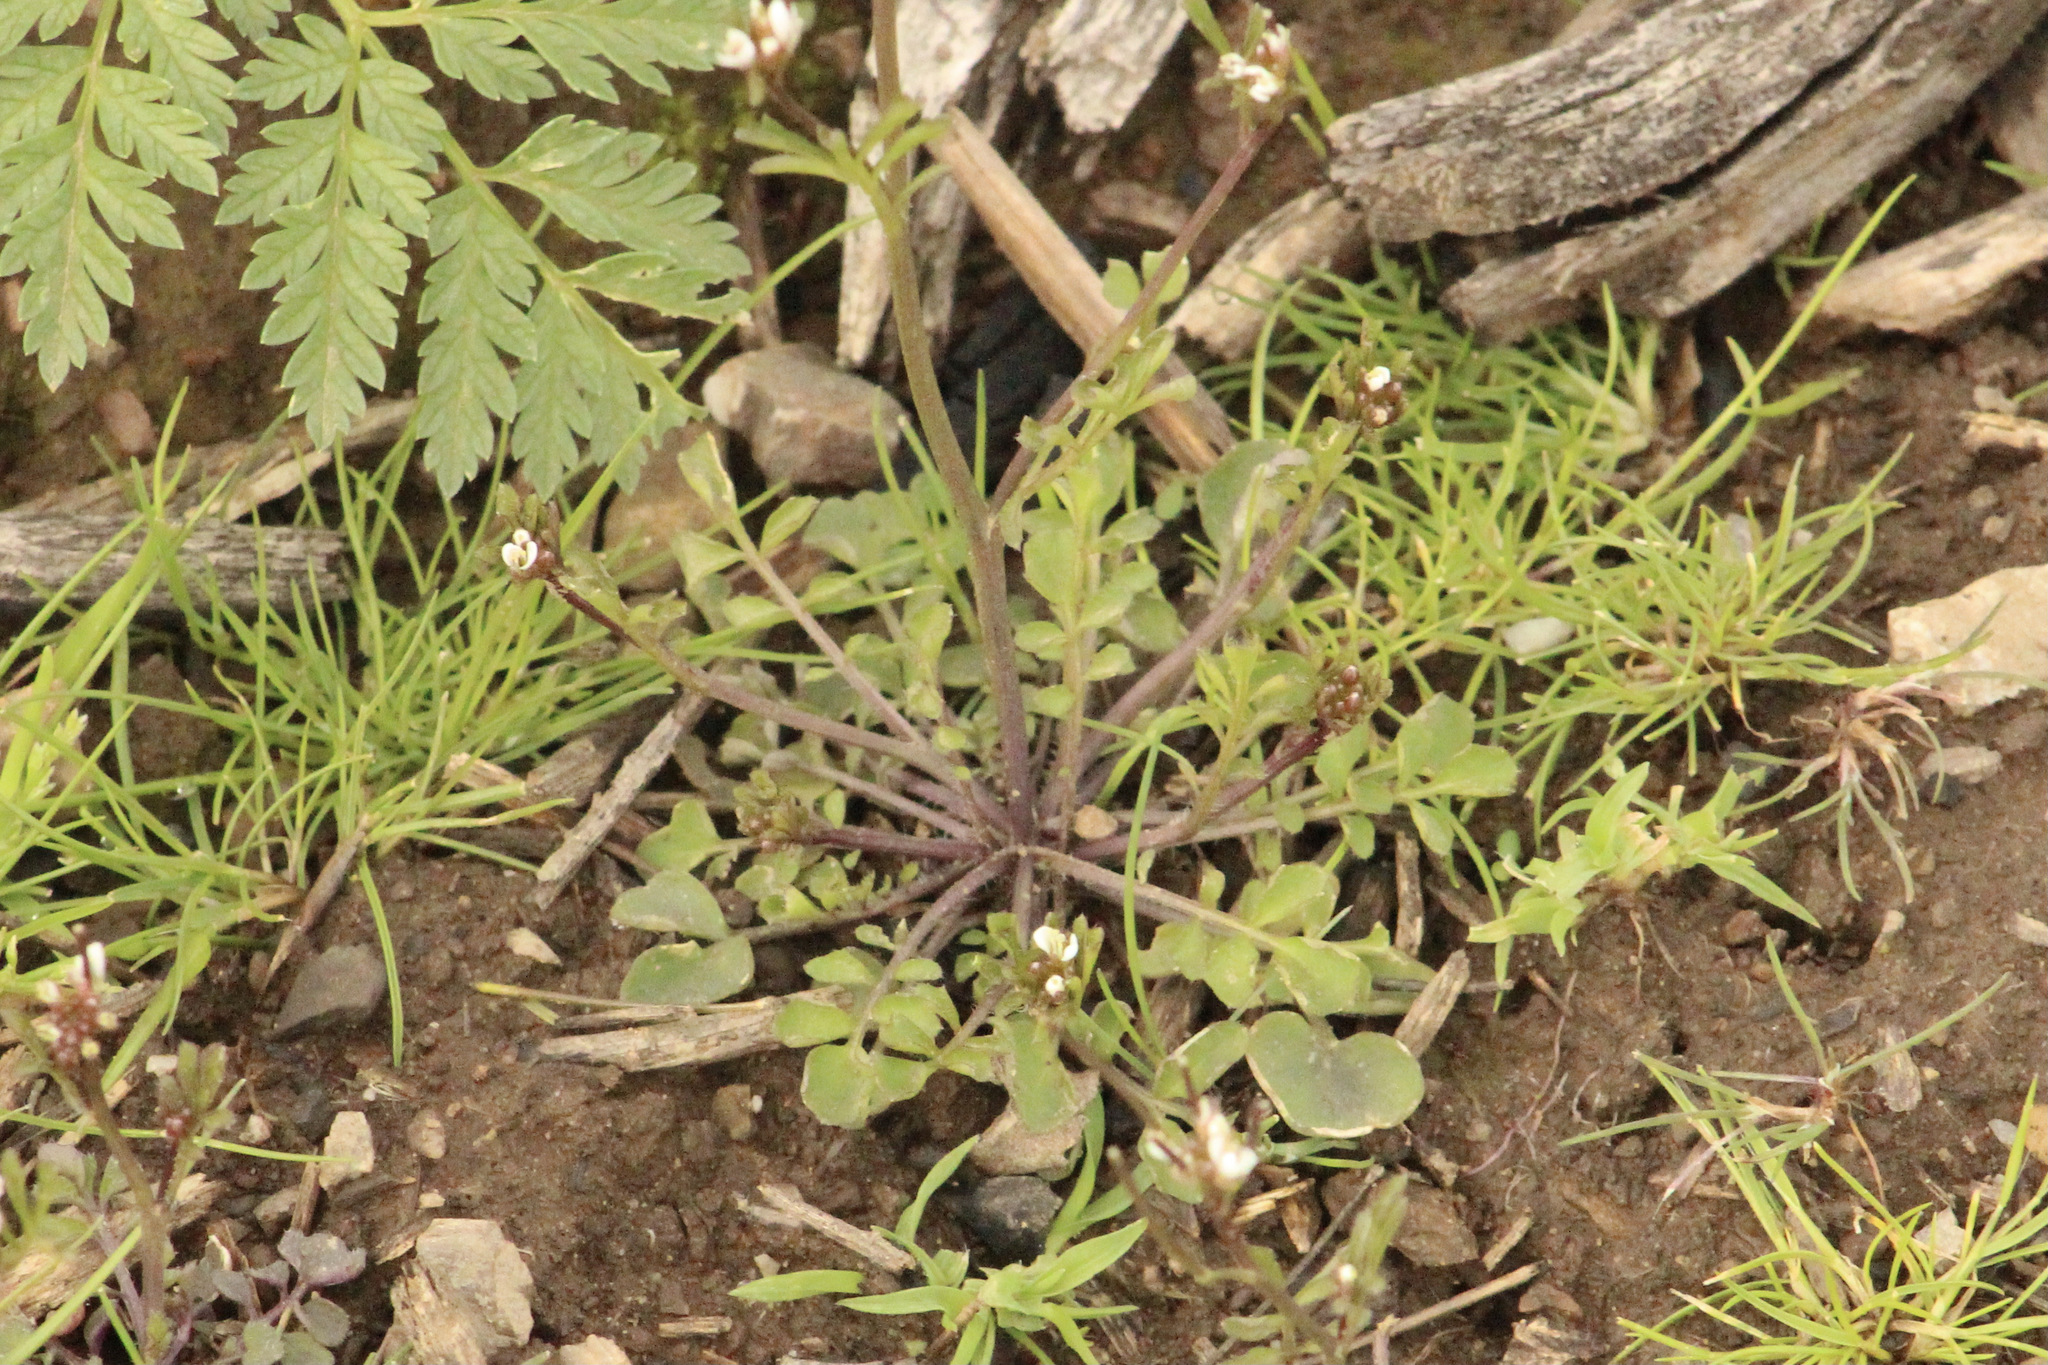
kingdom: Plantae
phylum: Tracheophyta
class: Magnoliopsida
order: Brassicales
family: Brassicaceae
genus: Cardamine
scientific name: Cardamine hirsuta
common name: Hairy bittercress
